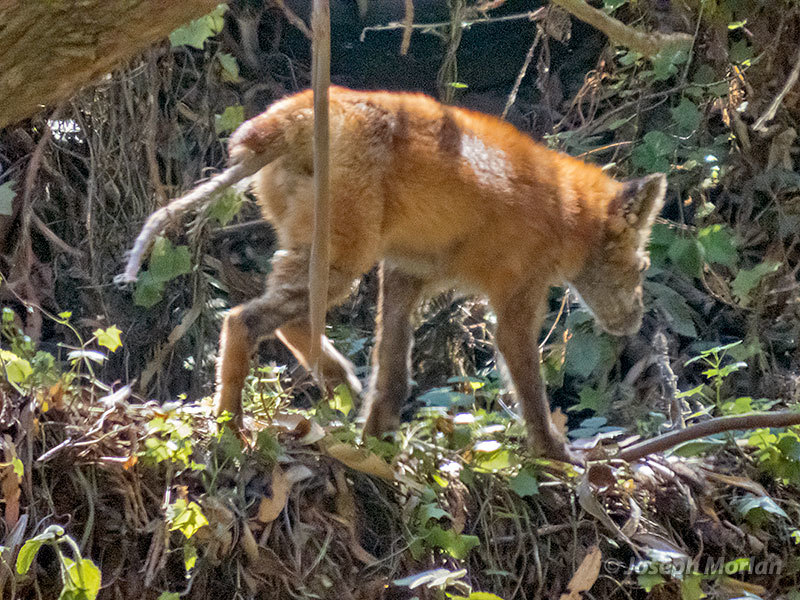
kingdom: Animalia
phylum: Chordata
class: Mammalia
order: Carnivora
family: Canidae
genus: Vulpes
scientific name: Vulpes vulpes
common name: Red fox
